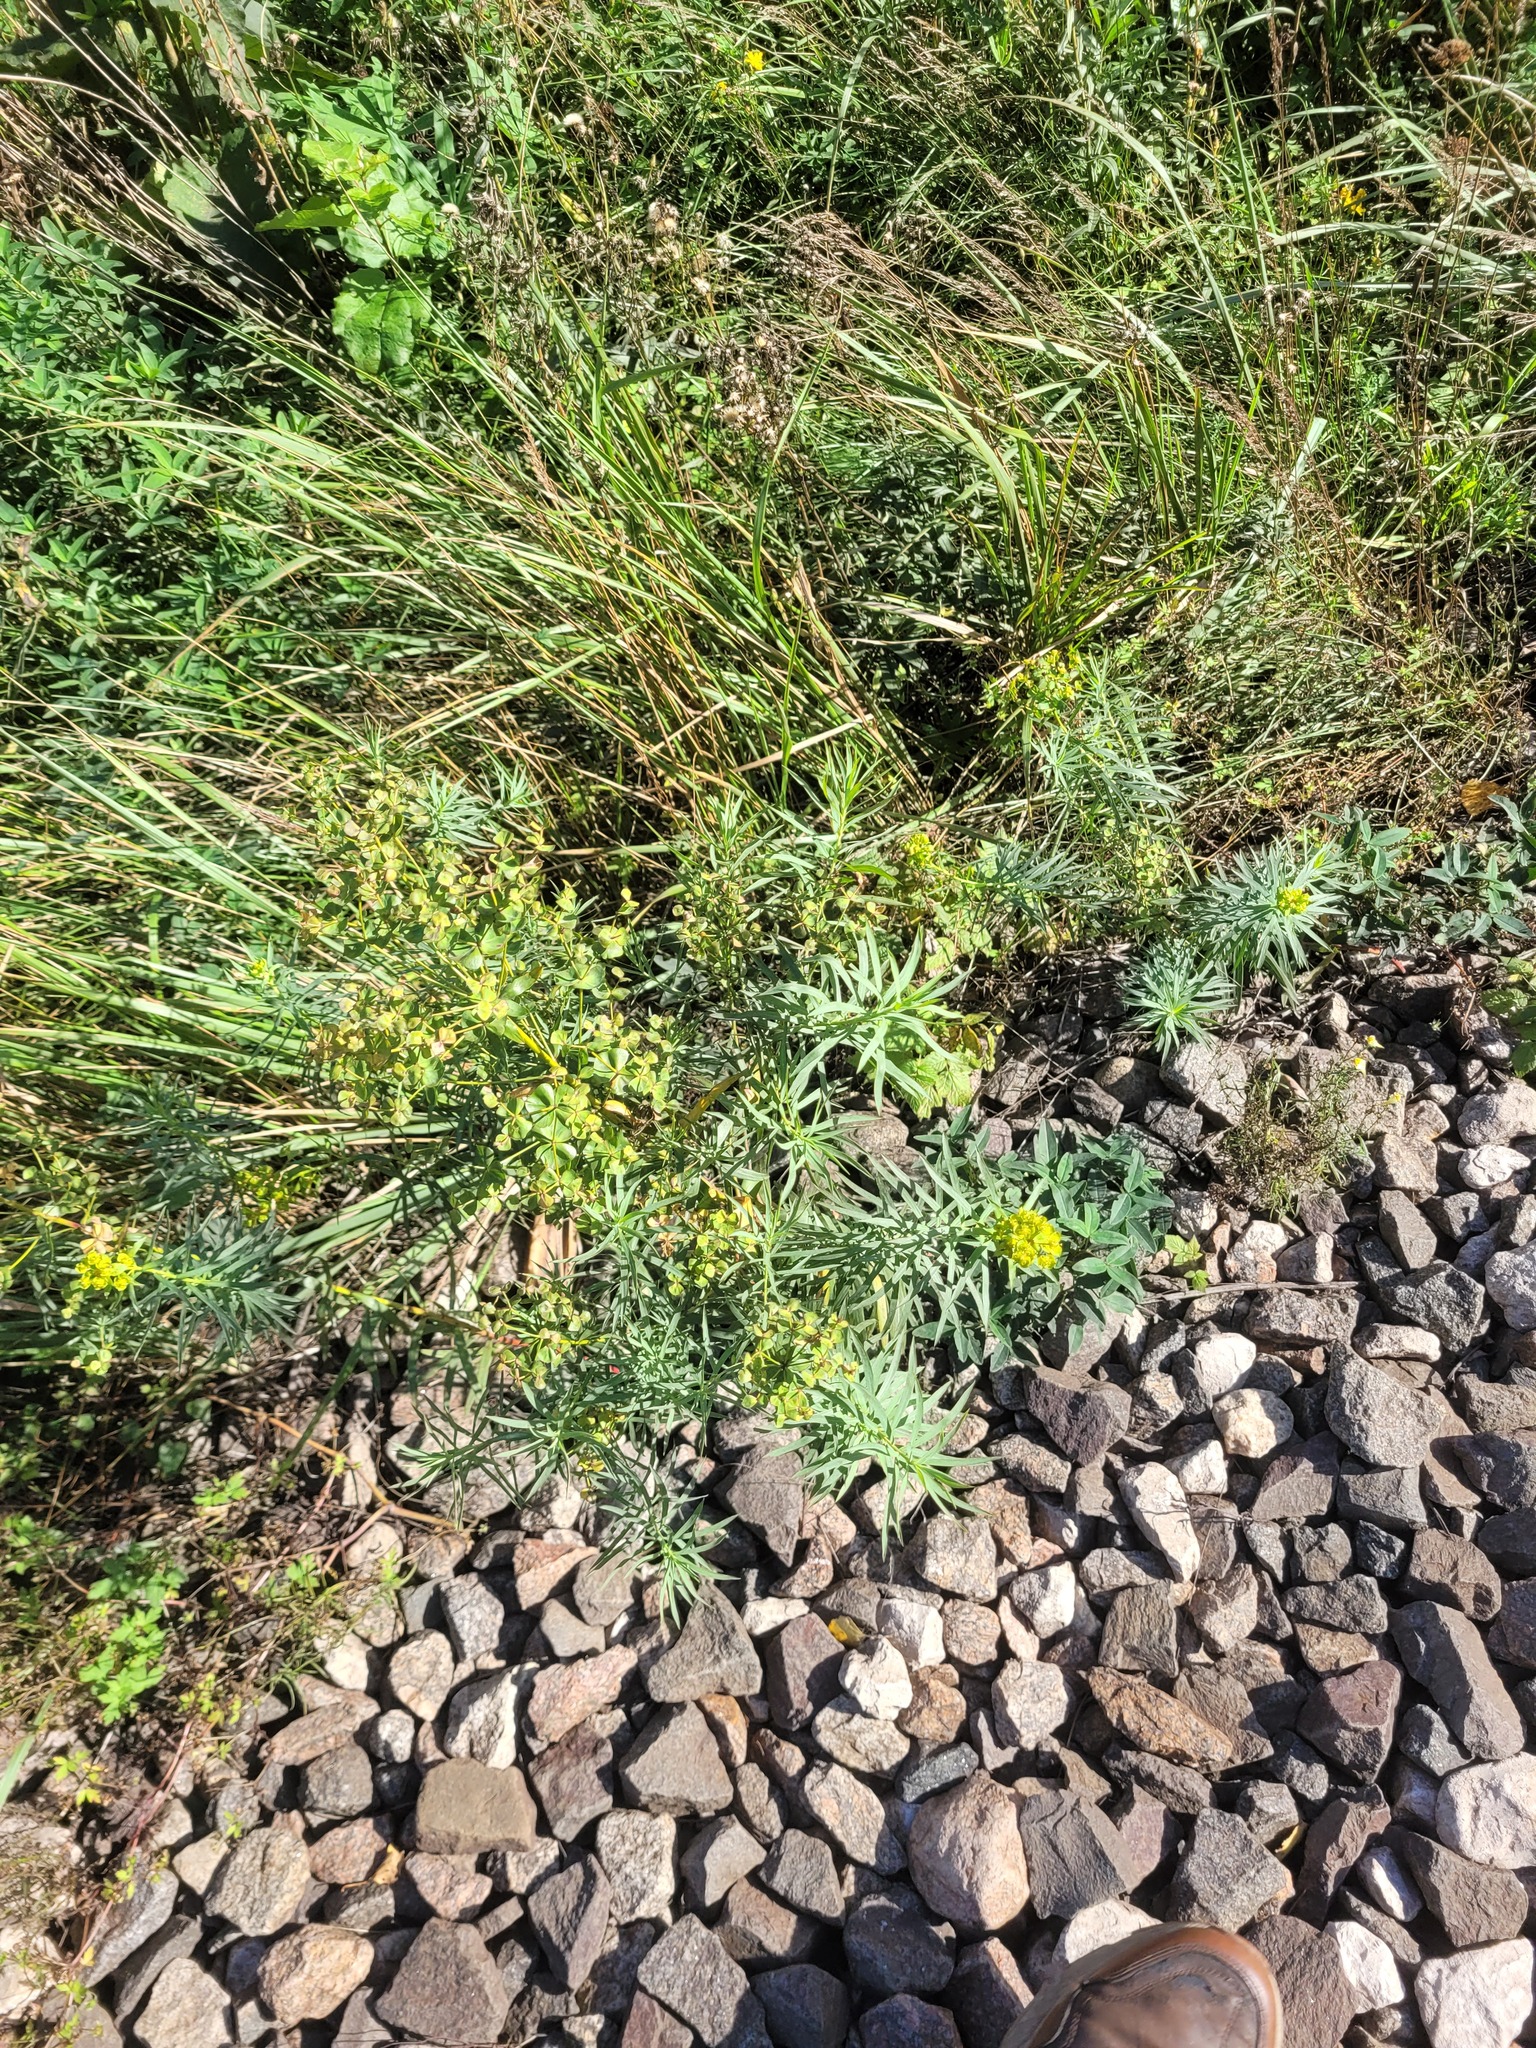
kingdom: Plantae
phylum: Tracheophyta
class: Magnoliopsida
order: Malpighiales
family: Euphorbiaceae
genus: Euphorbia
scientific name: Euphorbia virgata
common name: Leafy spurge
